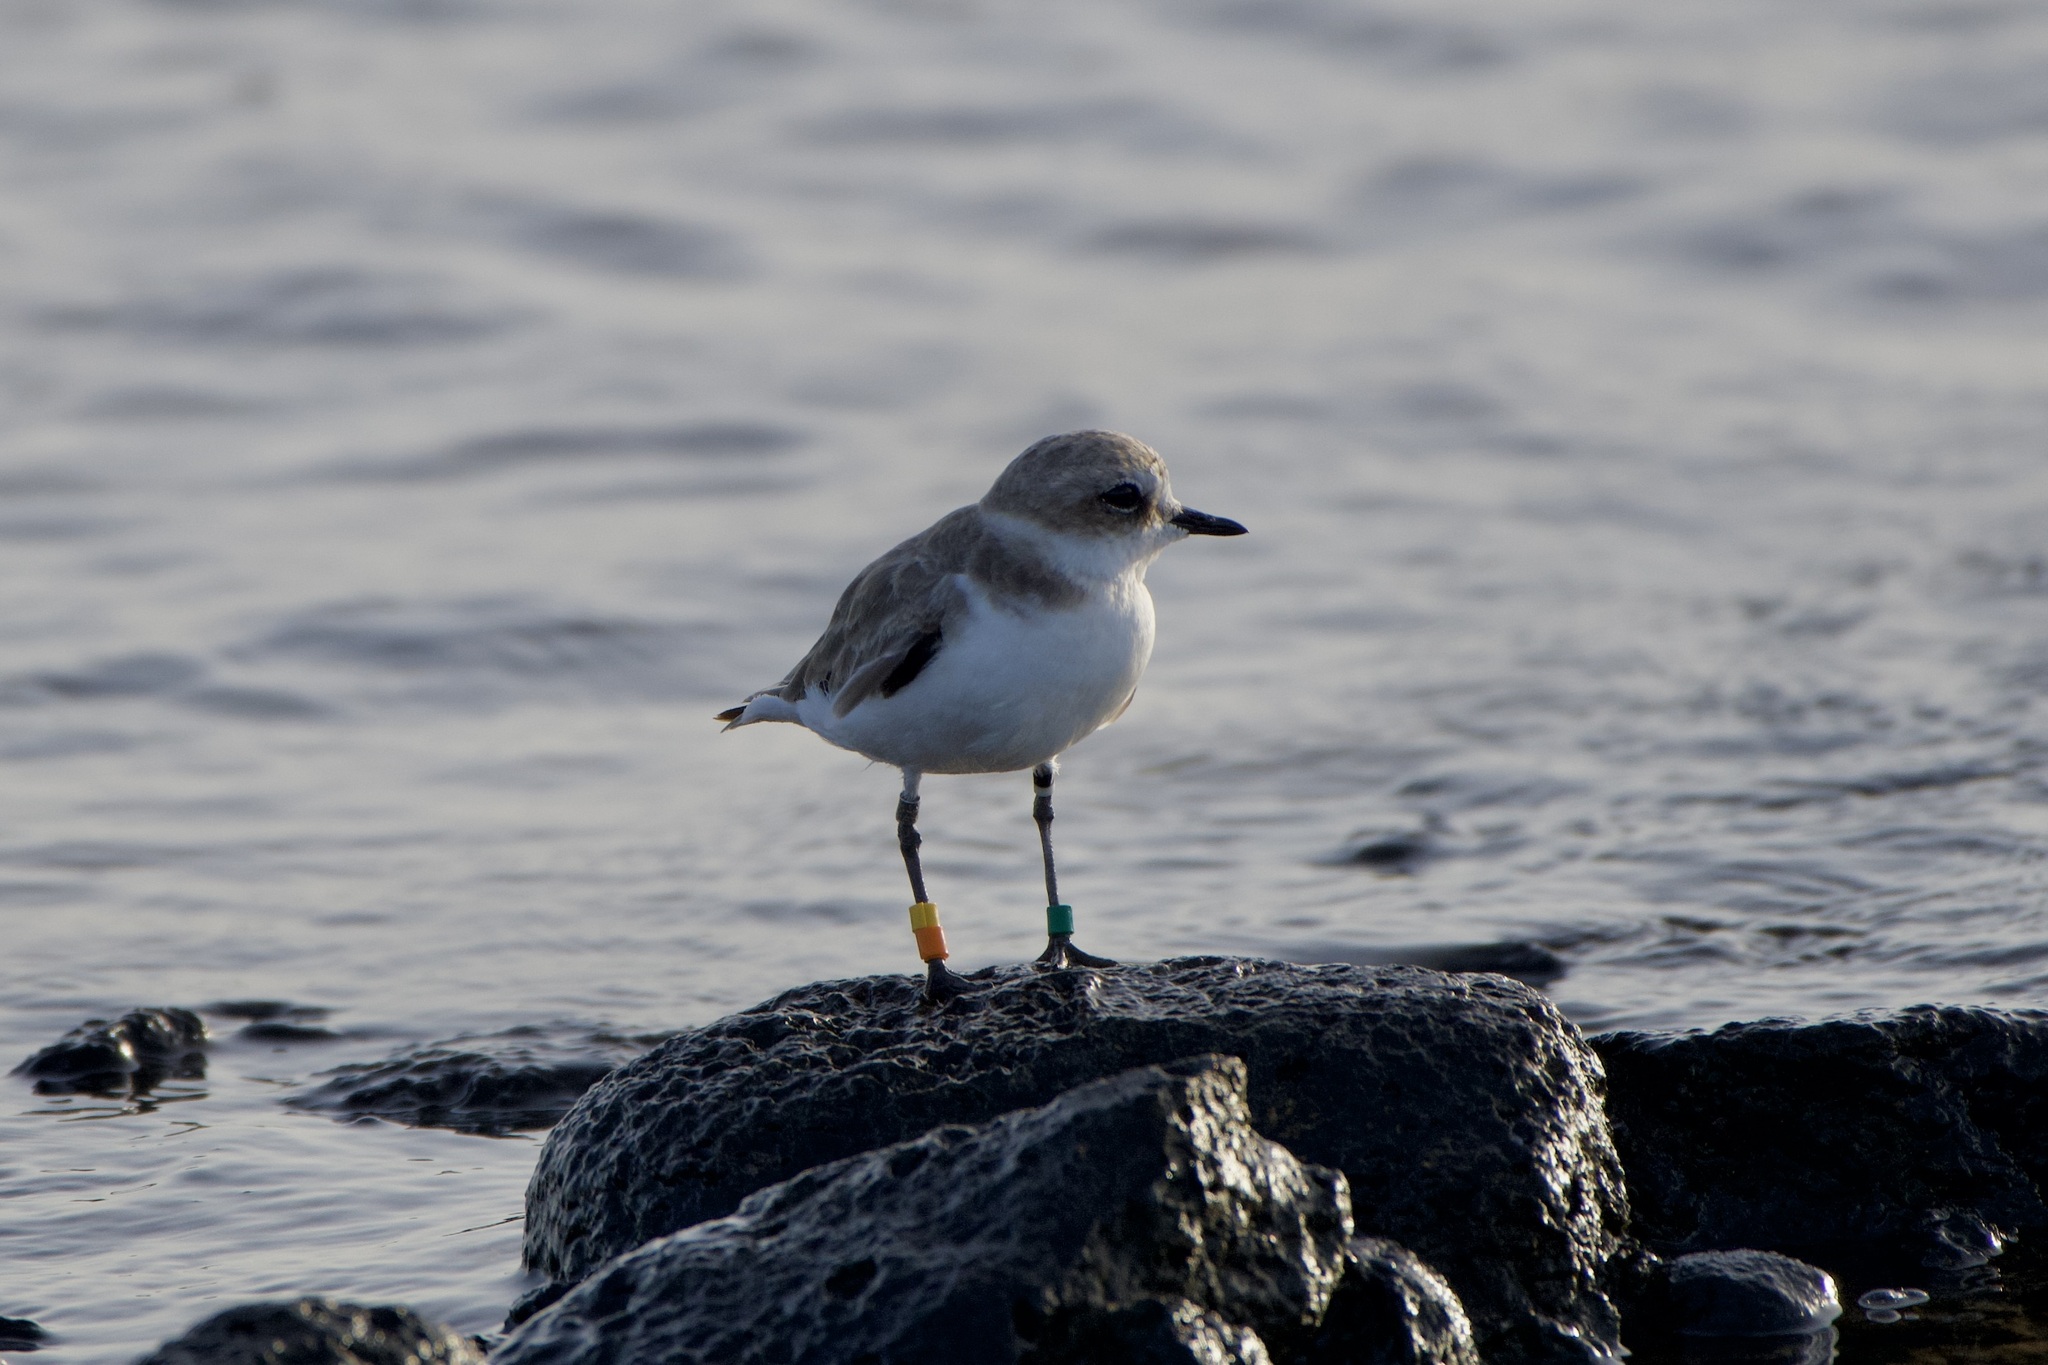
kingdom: Animalia
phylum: Chordata
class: Aves
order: Charadriiformes
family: Charadriidae
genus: Charadrius
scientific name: Charadrius alexandrinus
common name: Kentish plover
